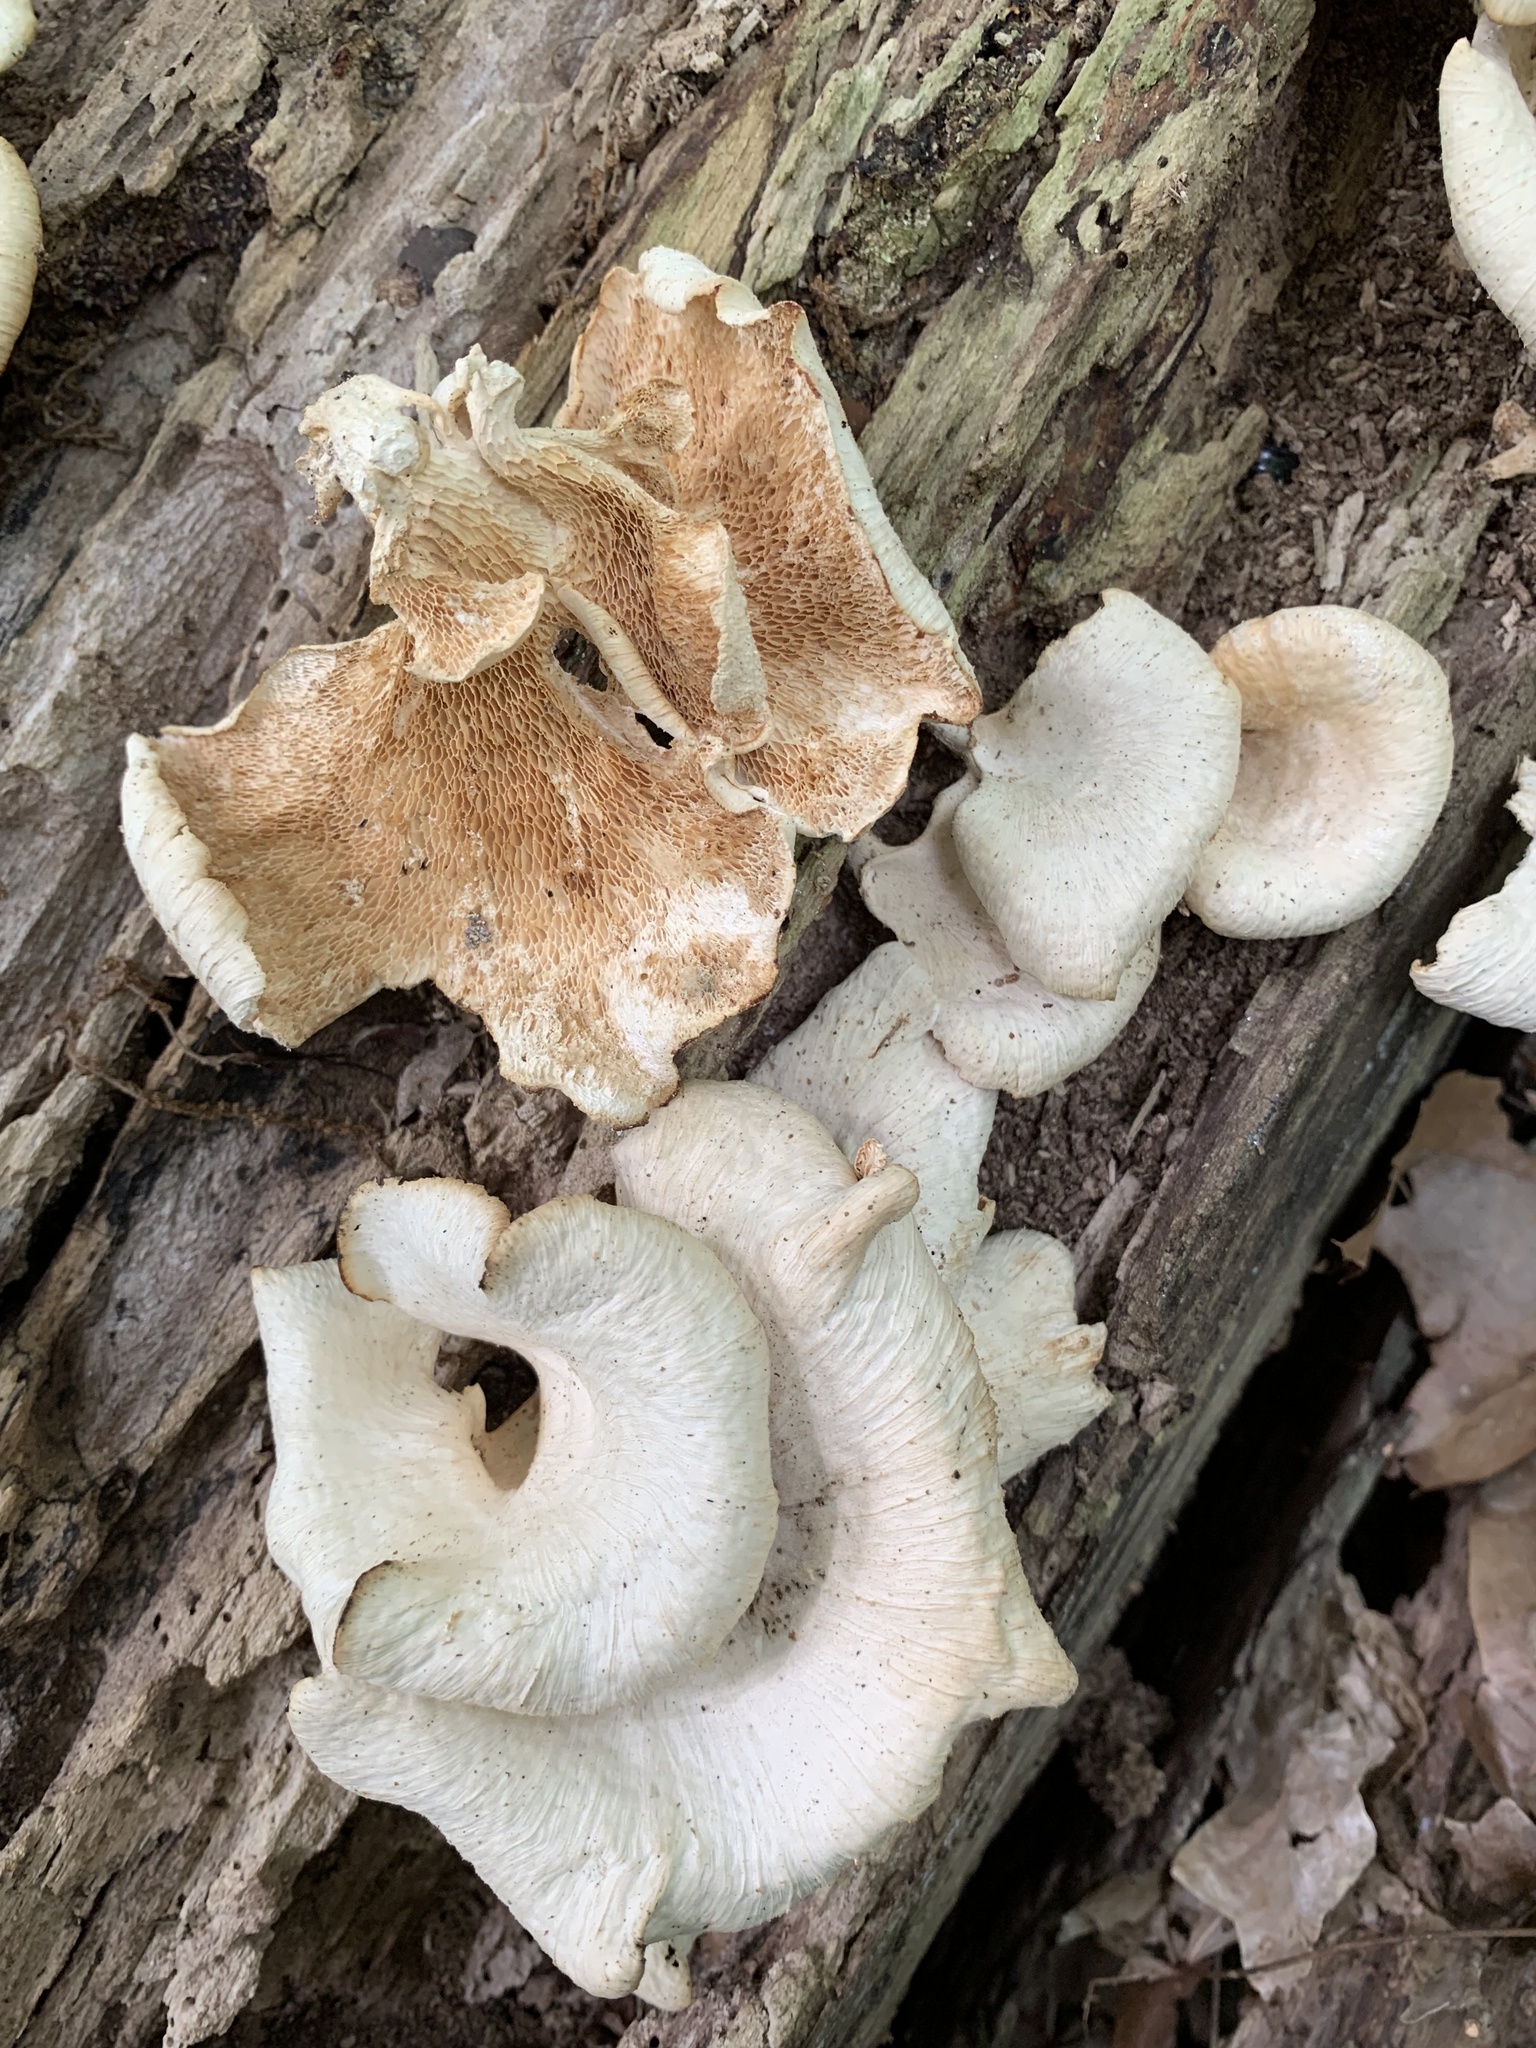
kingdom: Fungi
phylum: Basidiomycota
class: Agaricomycetes
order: Polyporales
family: Polyporaceae
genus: Favolus
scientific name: Favolus tenuiculus
